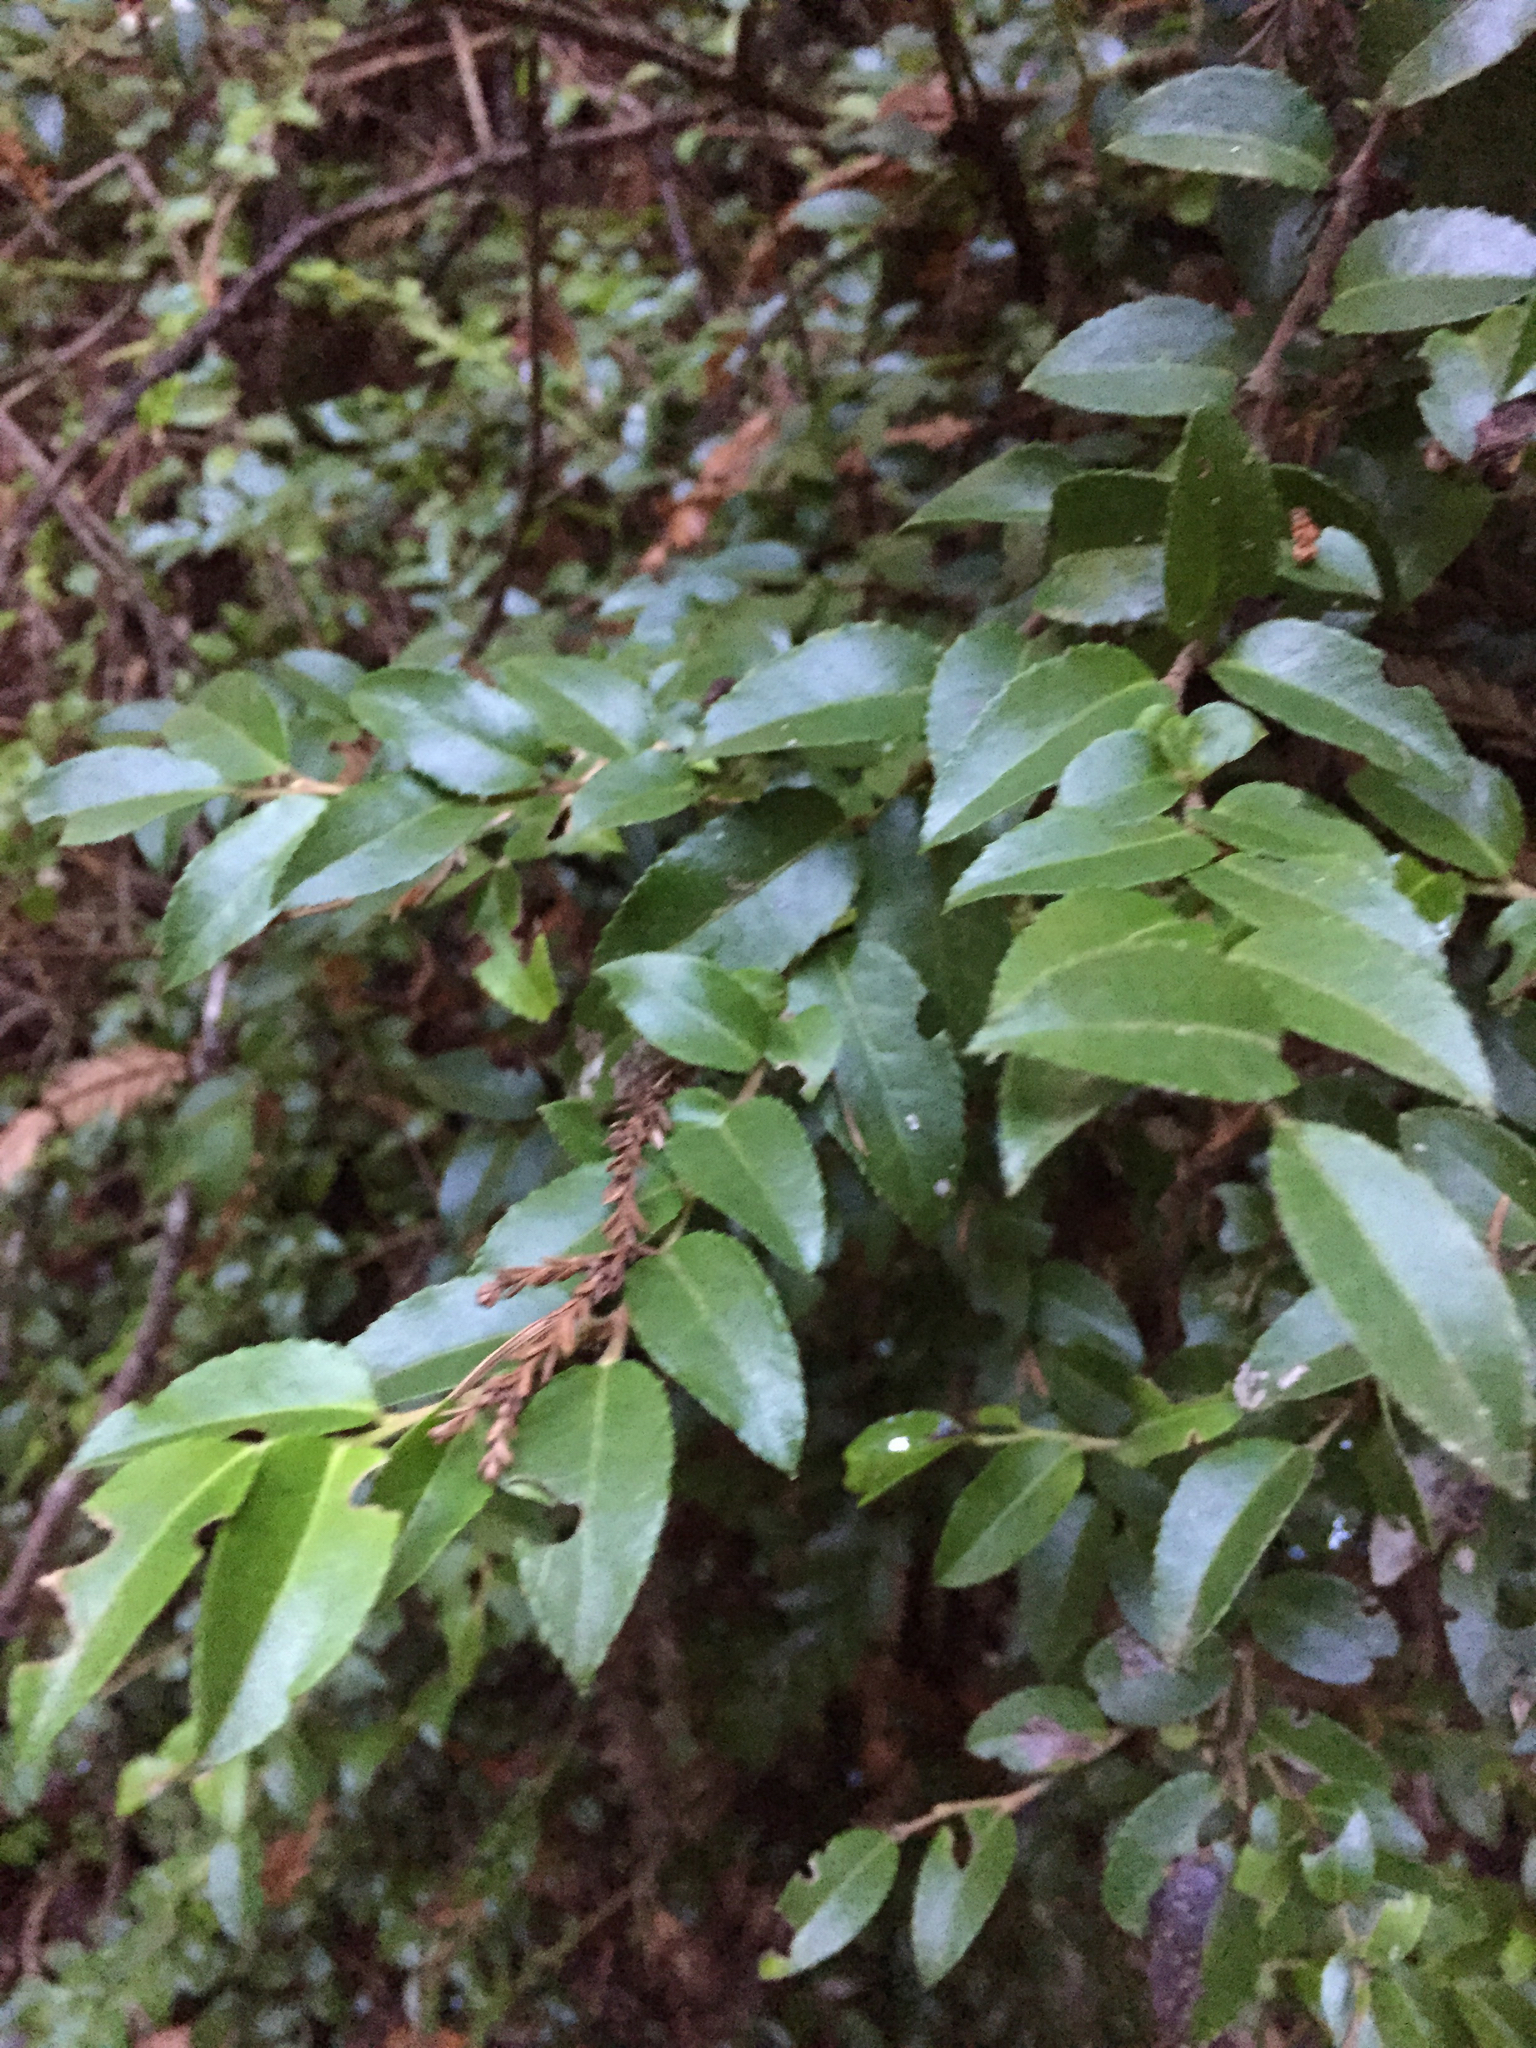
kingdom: Plantae
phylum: Tracheophyta
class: Magnoliopsida
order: Ericales
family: Ericaceae
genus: Vaccinium
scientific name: Vaccinium ovatum
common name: California-huckleberry
